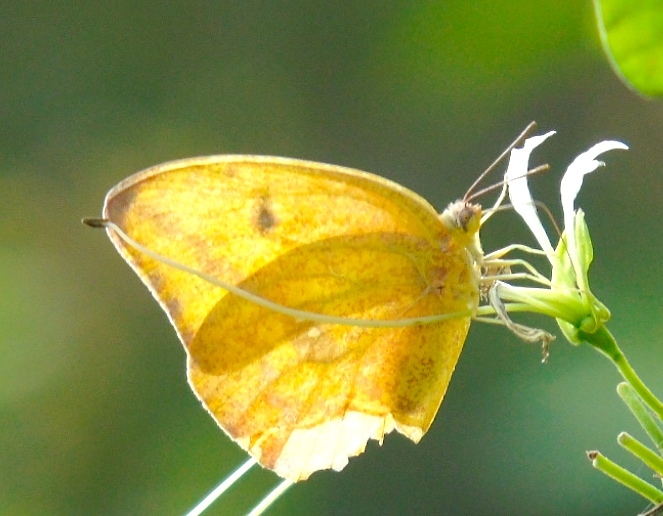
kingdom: Animalia
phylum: Arthropoda
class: Insecta
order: Lepidoptera
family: Pieridae
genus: Phoebis
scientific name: Phoebis agarithe
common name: Large orange sulphur
